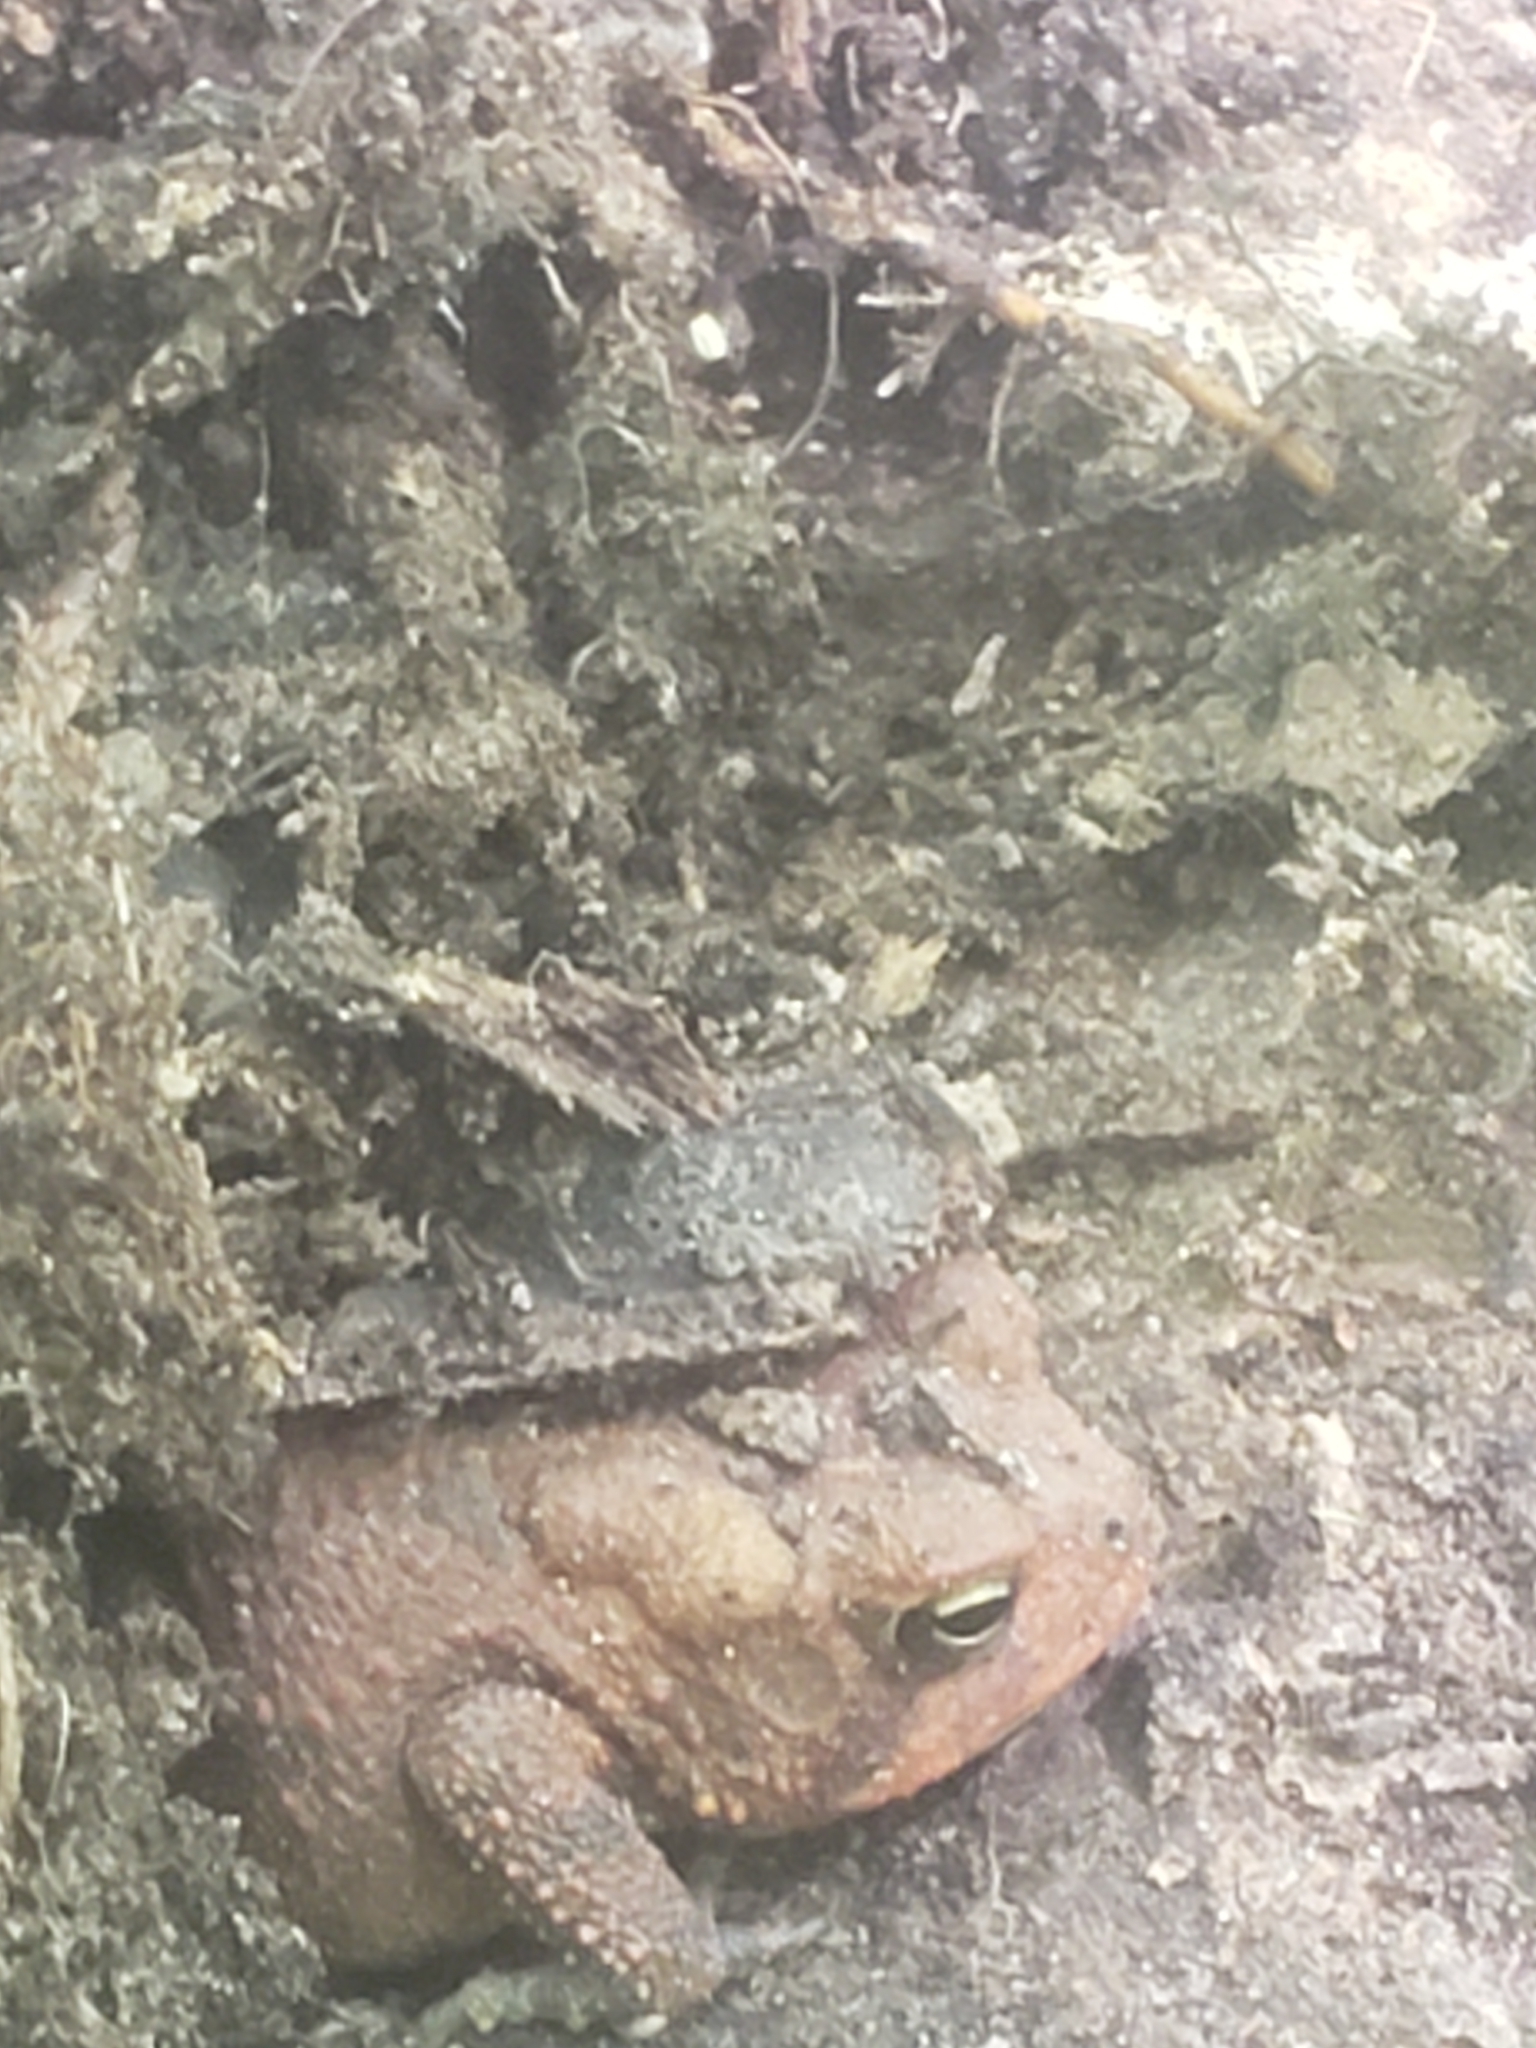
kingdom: Animalia
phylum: Chordata
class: Amphibia
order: Anura
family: Bufonidae
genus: Anaxyrus
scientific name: Anaxyrus americanus
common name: American toad
